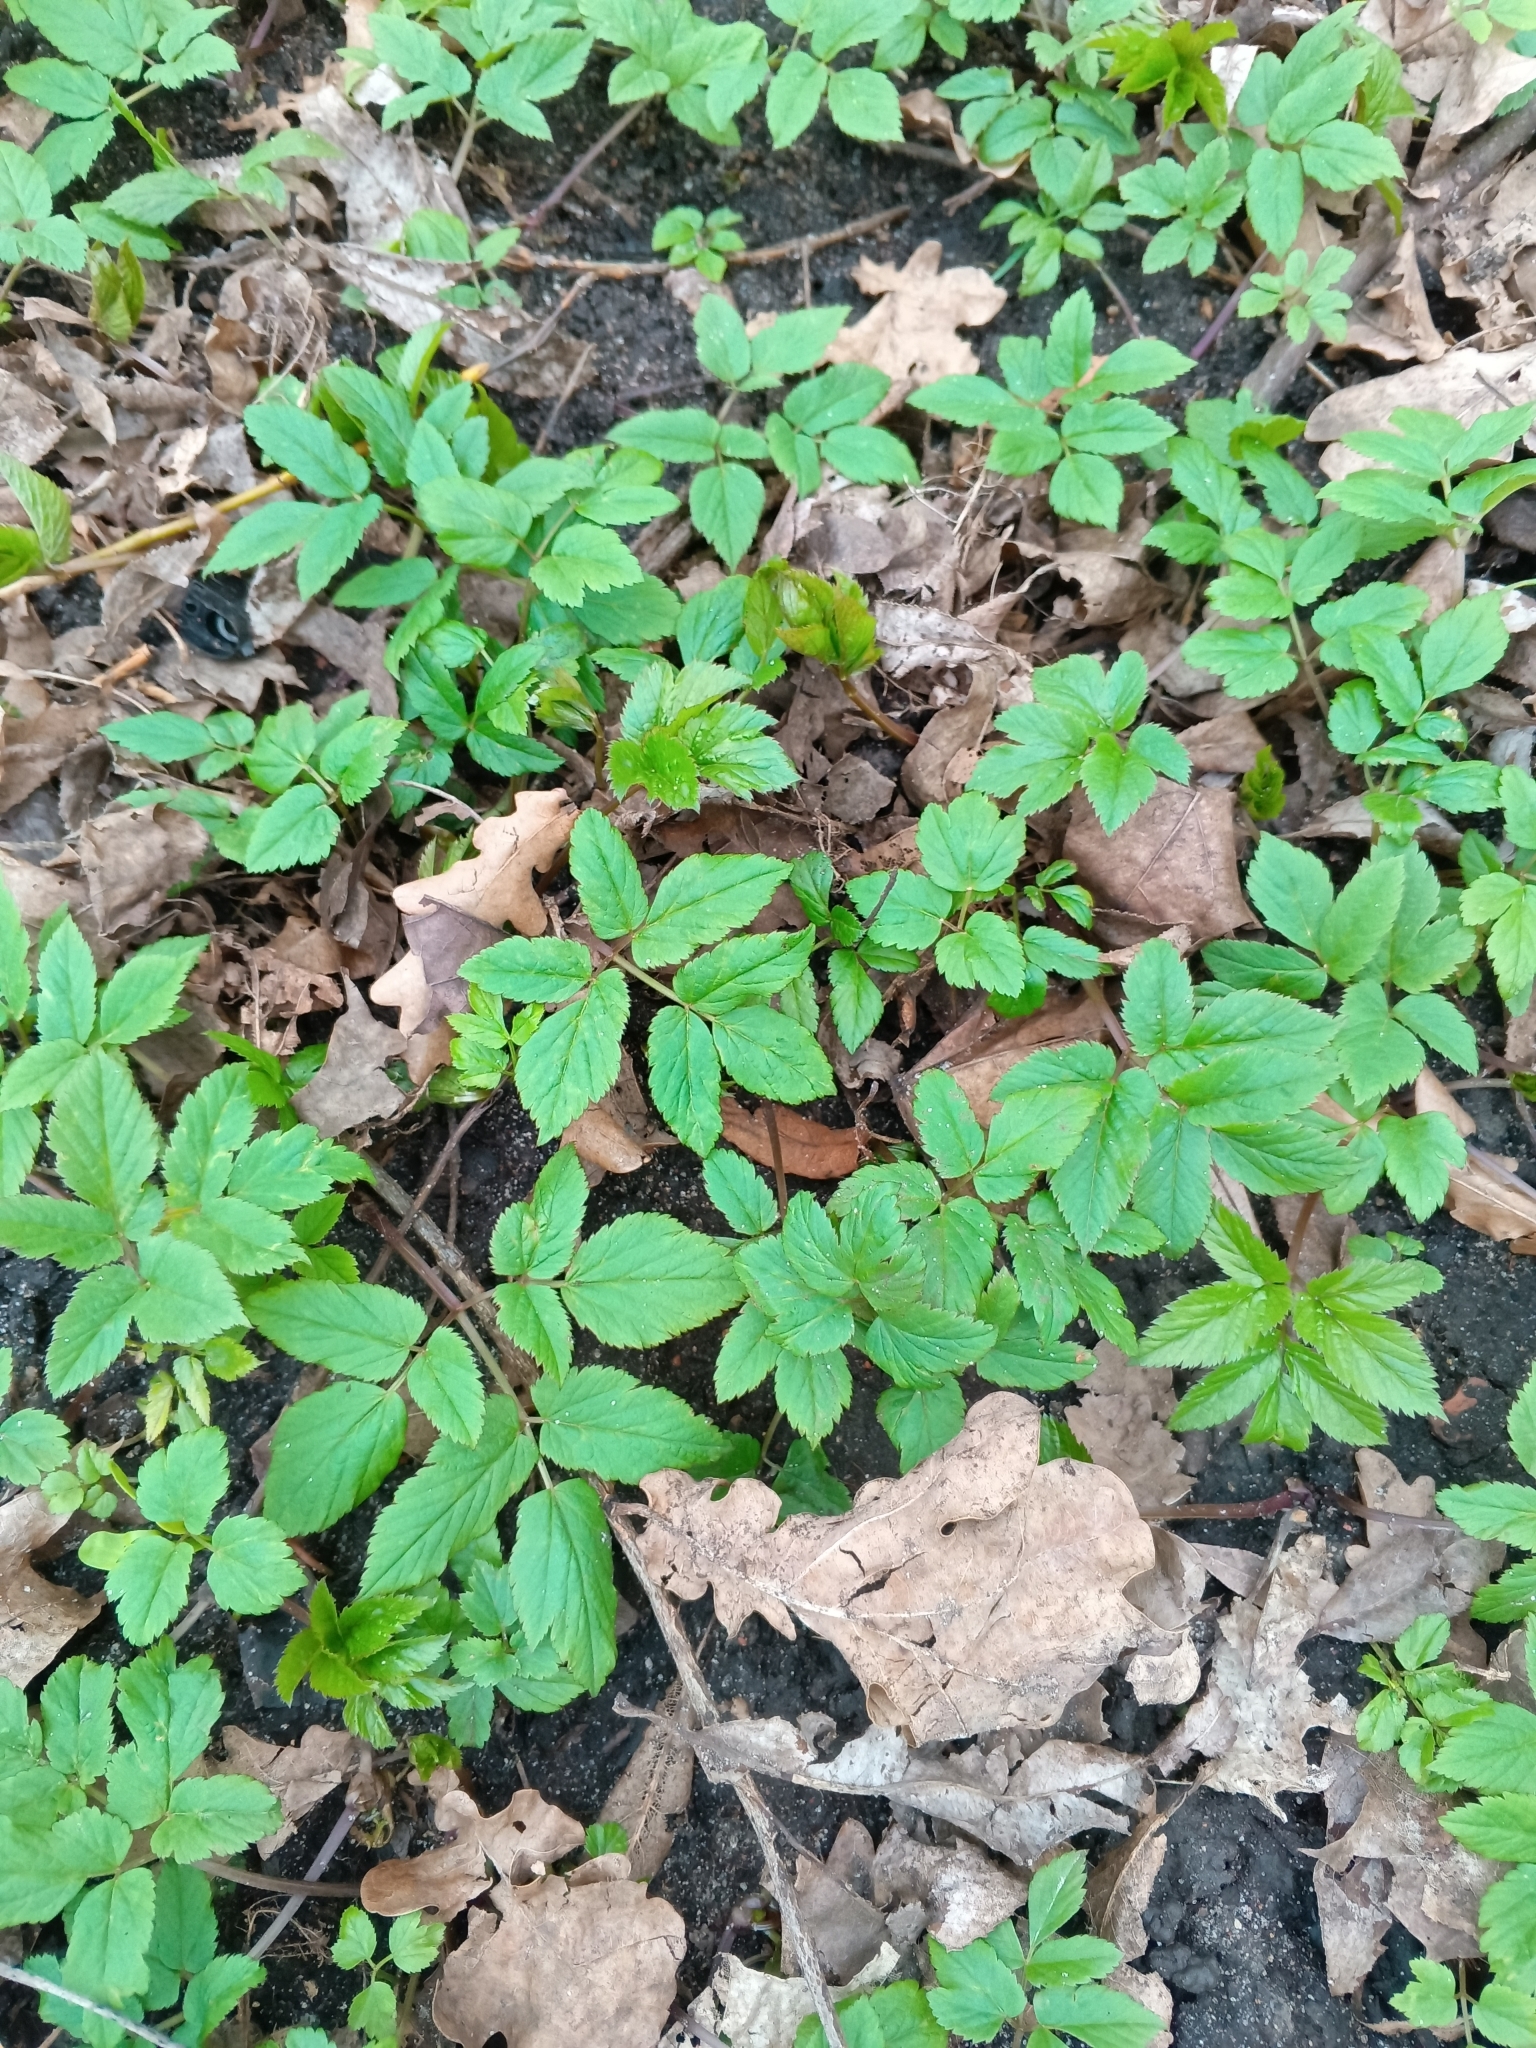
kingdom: Plantae
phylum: Tracheophyta
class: Magnoliopsida
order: Apiales
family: Apiaceae
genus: Aegopodium
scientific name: Aegopodium podagraria
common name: Ground-elder
